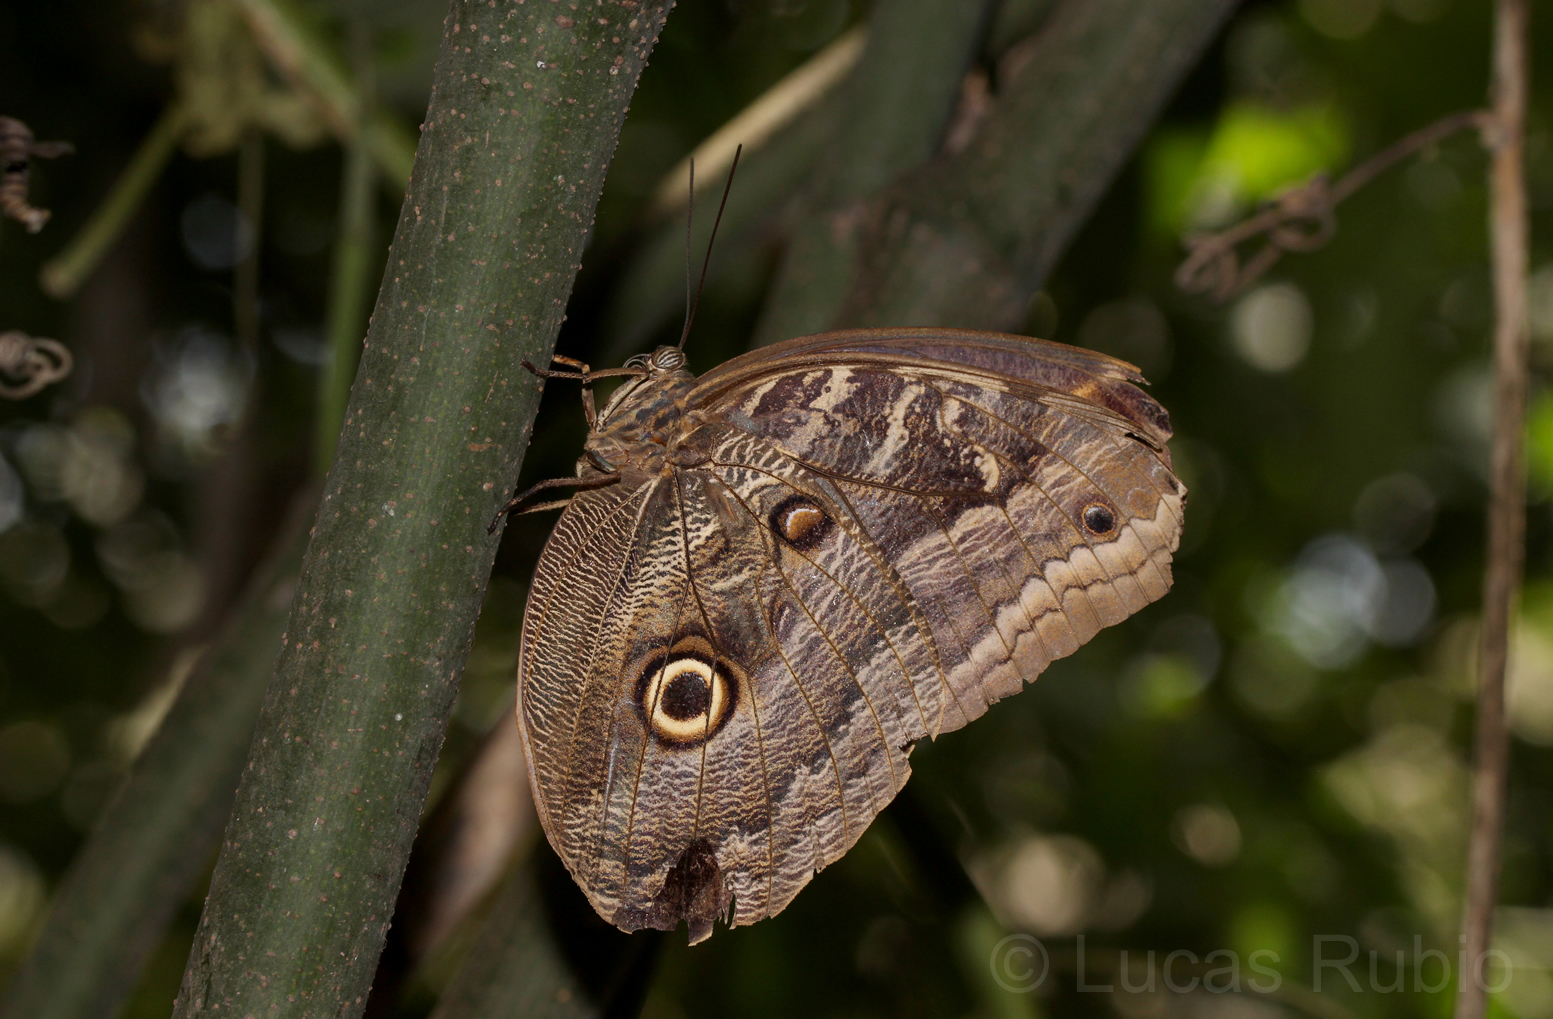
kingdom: Animalia
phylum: Arthropoda
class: Insecta
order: Lepidoptera
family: Nymphalidae
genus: Caligo
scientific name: Caligo illioneus
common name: Dusky owl-butterfly
